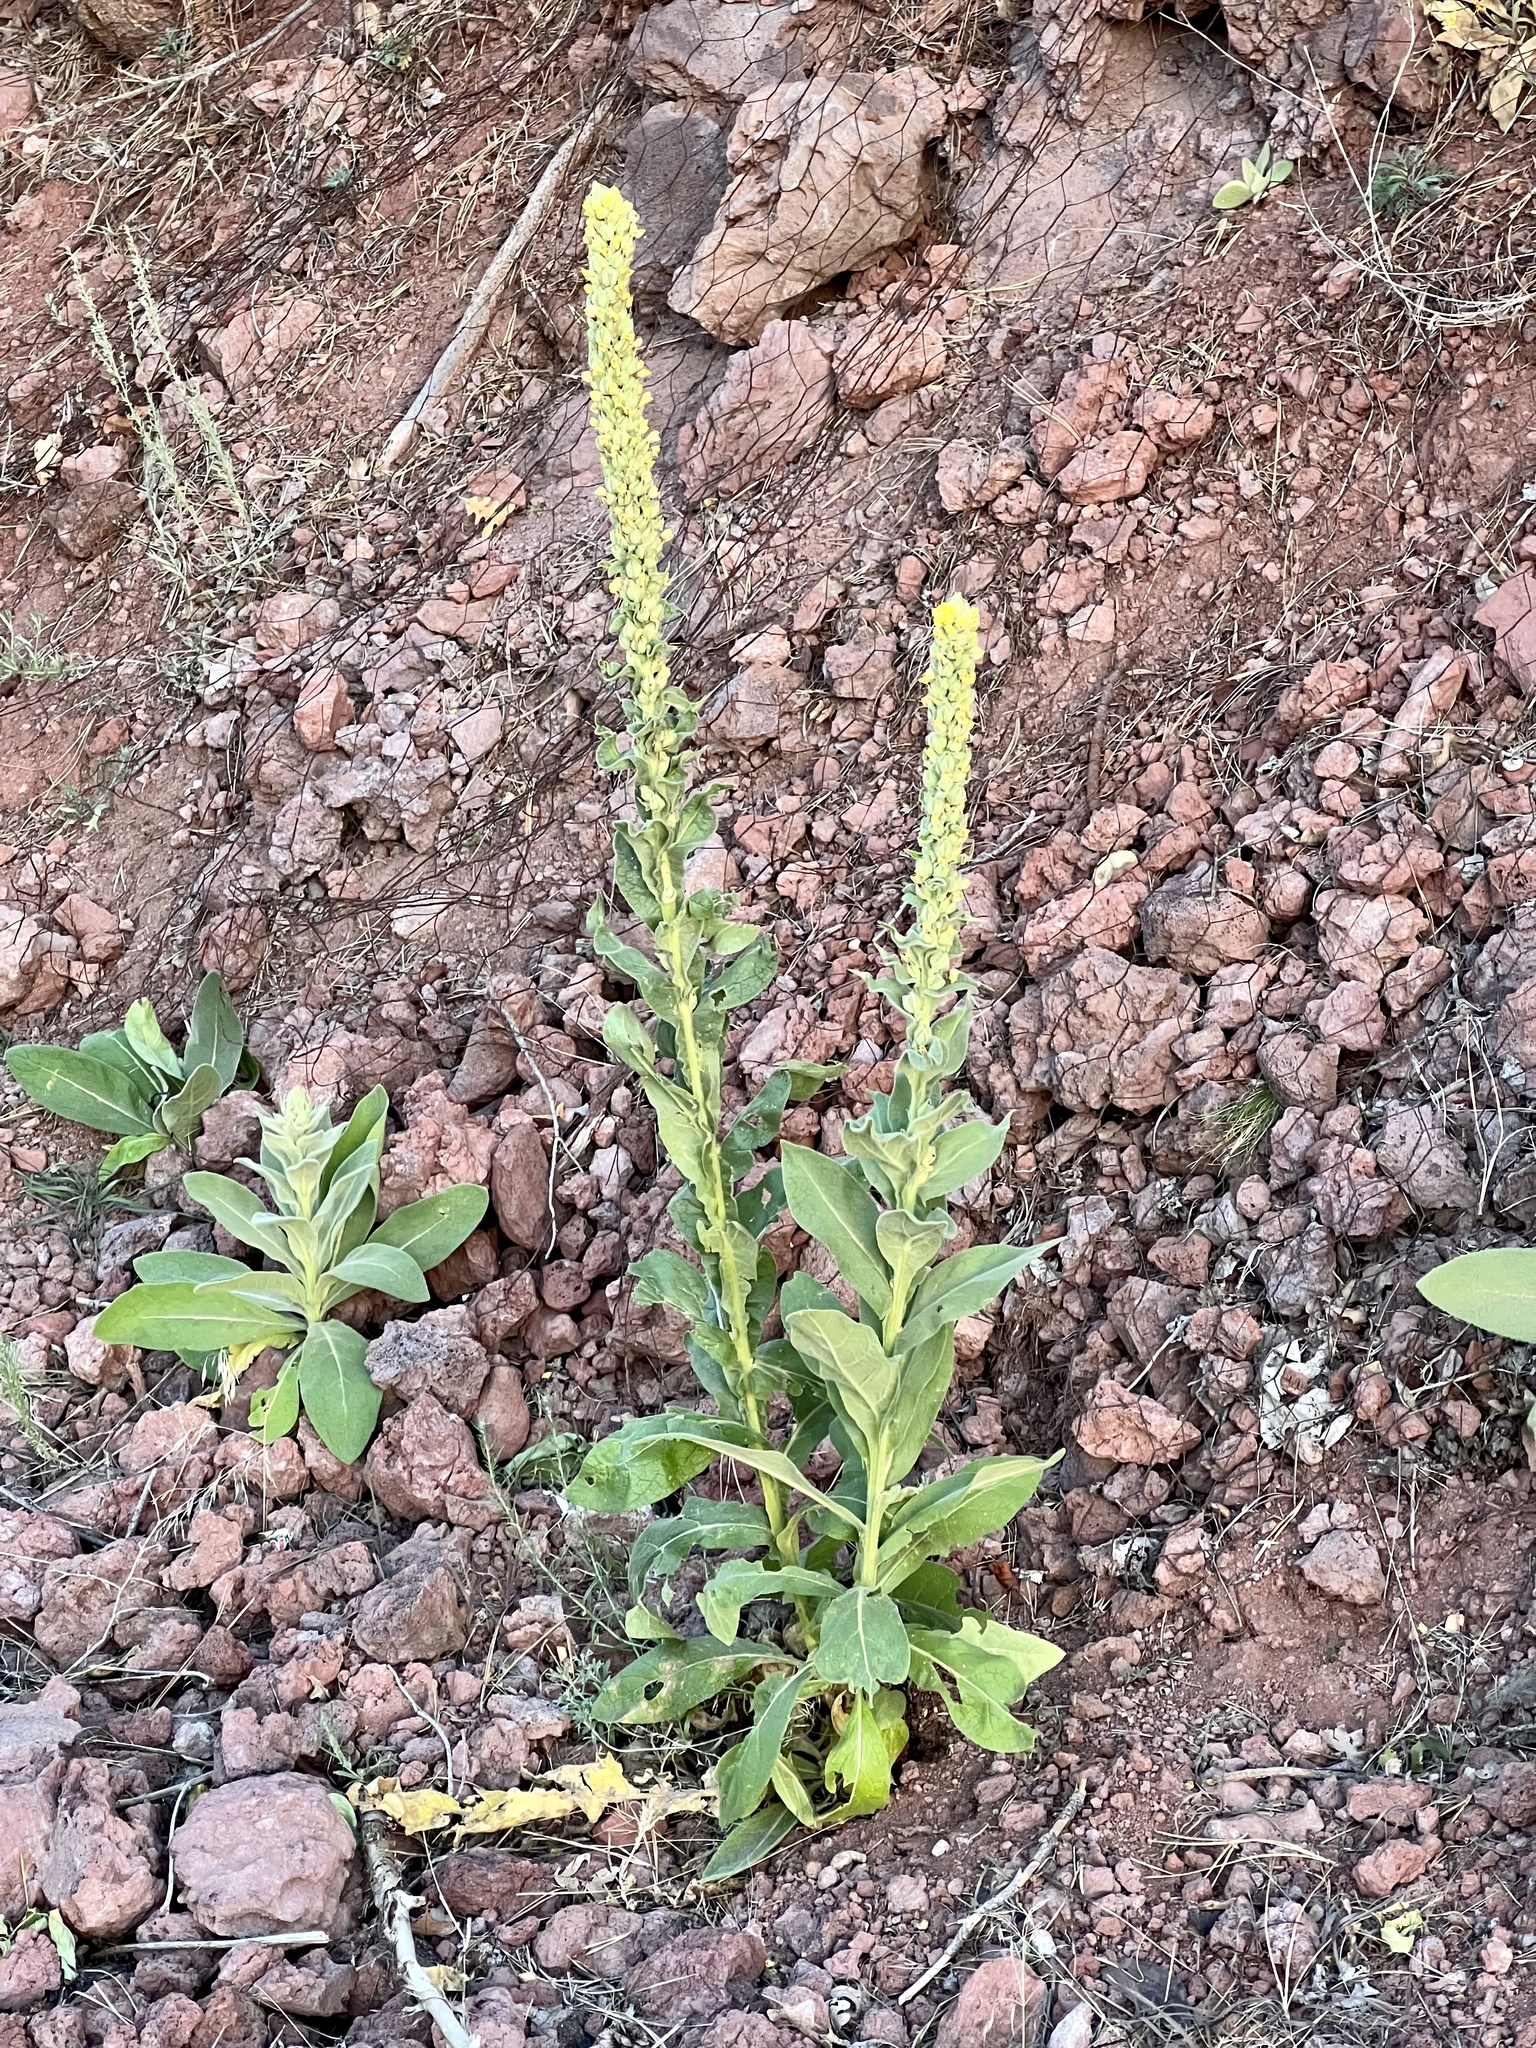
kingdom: Plantae
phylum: Tracheophyta
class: Magnoliopsida
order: Lamiales
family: Scrophulariaceae
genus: Verbascum
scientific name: Verbascum thapsus
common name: Common mullein
